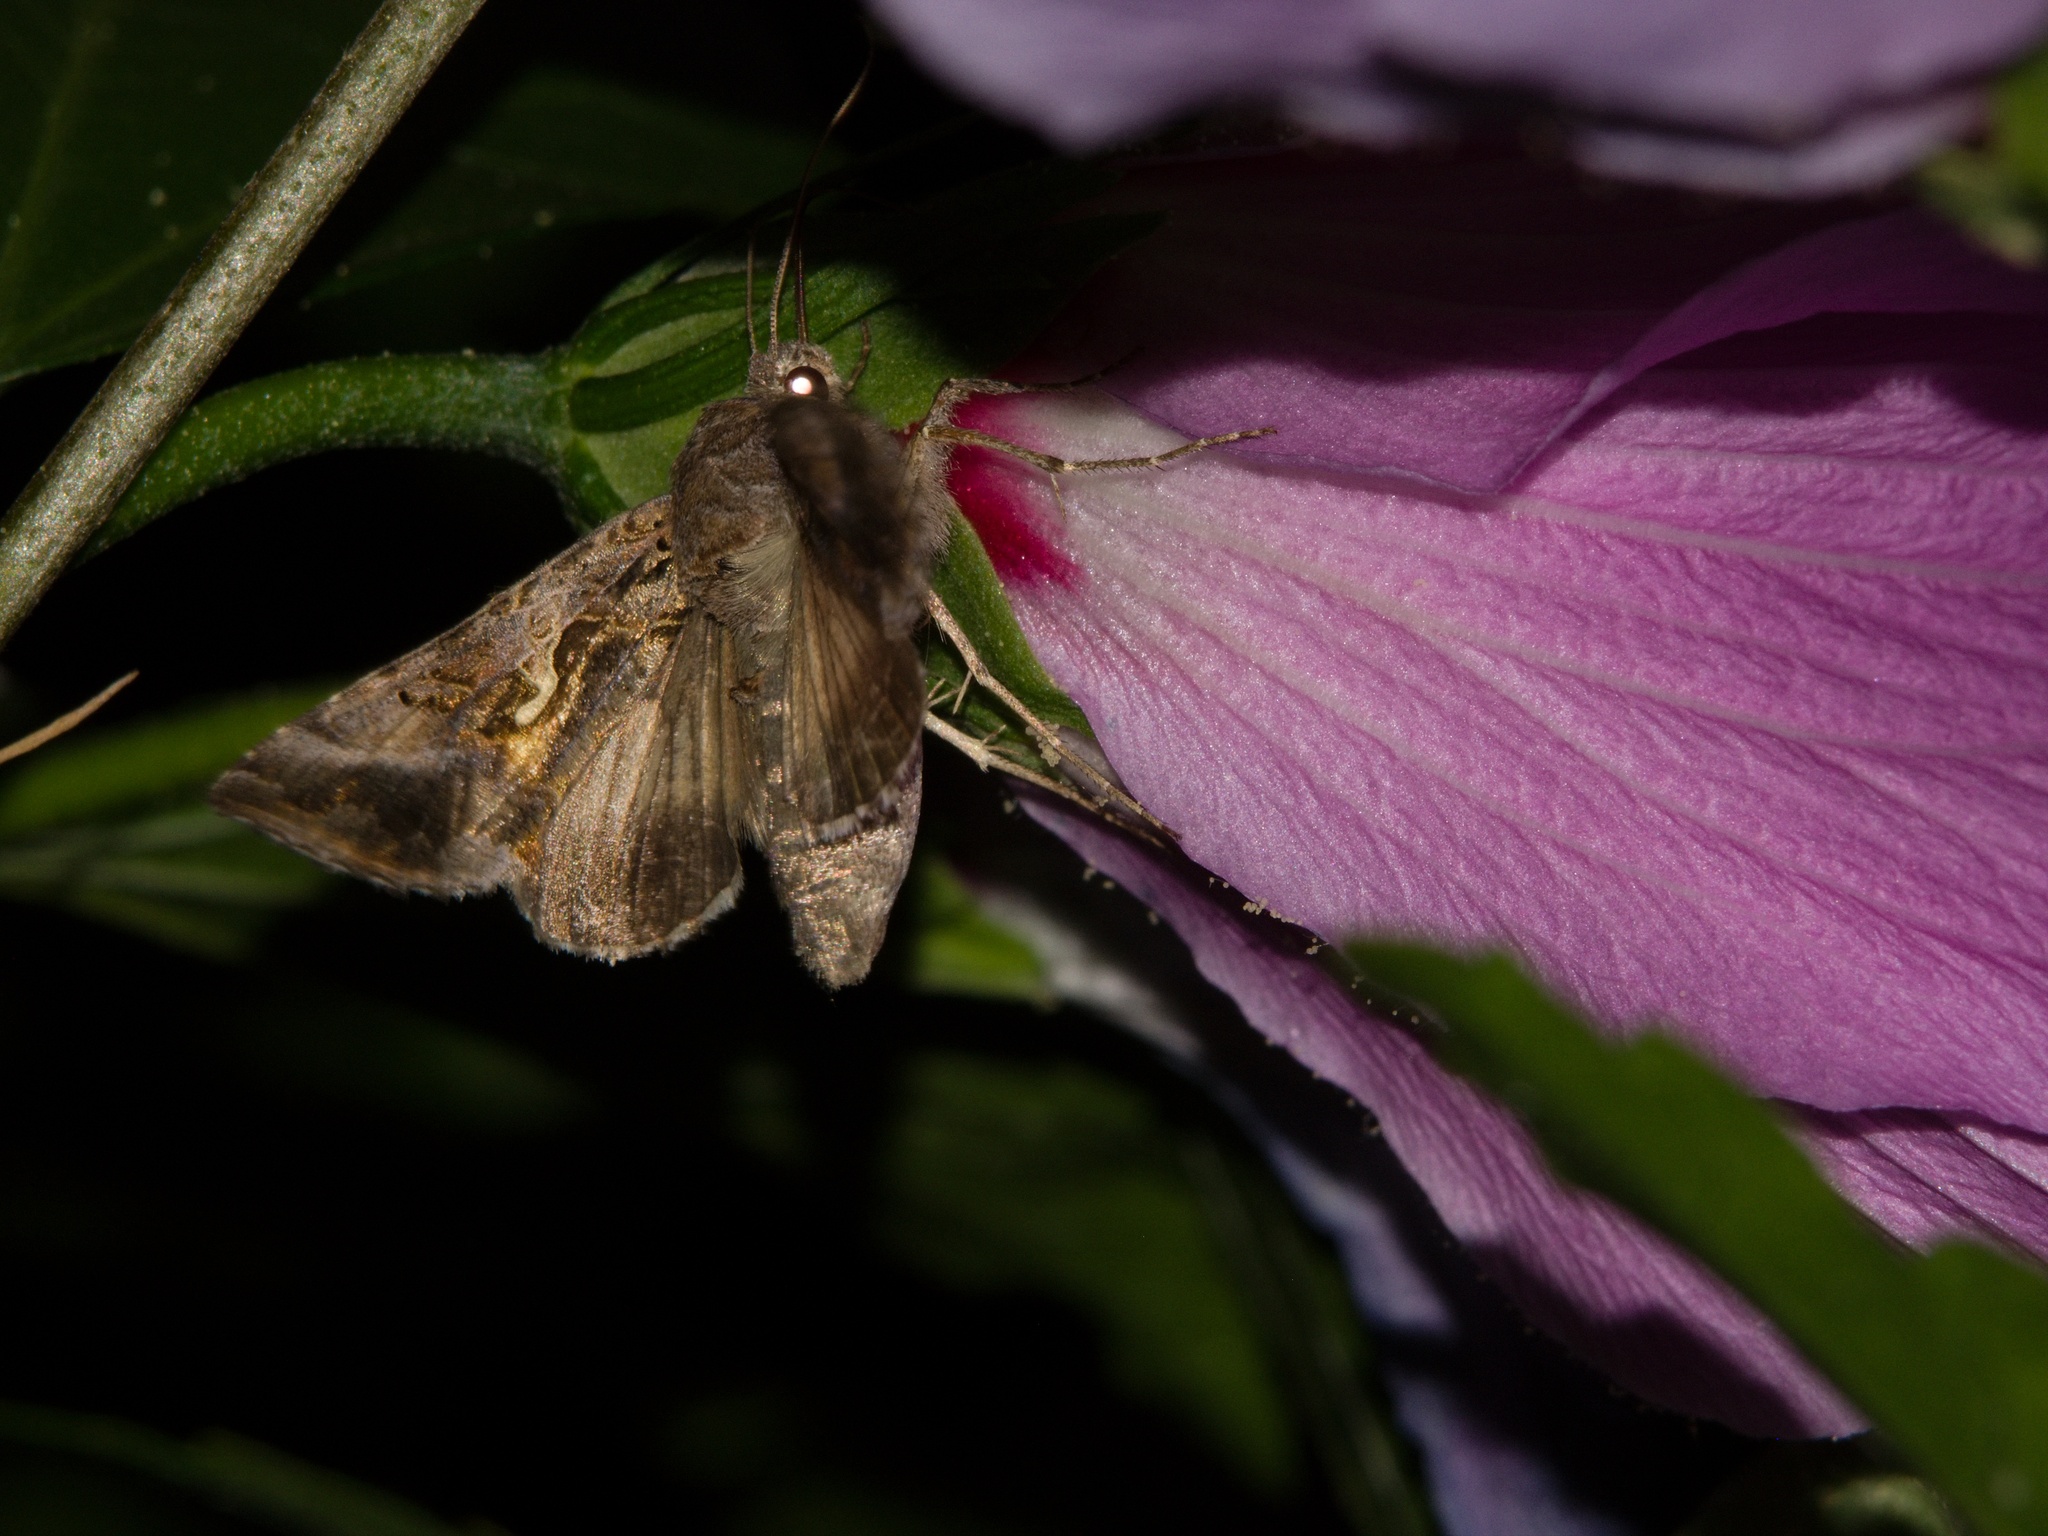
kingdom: Animalia
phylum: Arthropoda
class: Insecta
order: Lepidoptera
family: Noctuidae
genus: Autographa
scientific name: Autographa gamma
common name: Silver y
